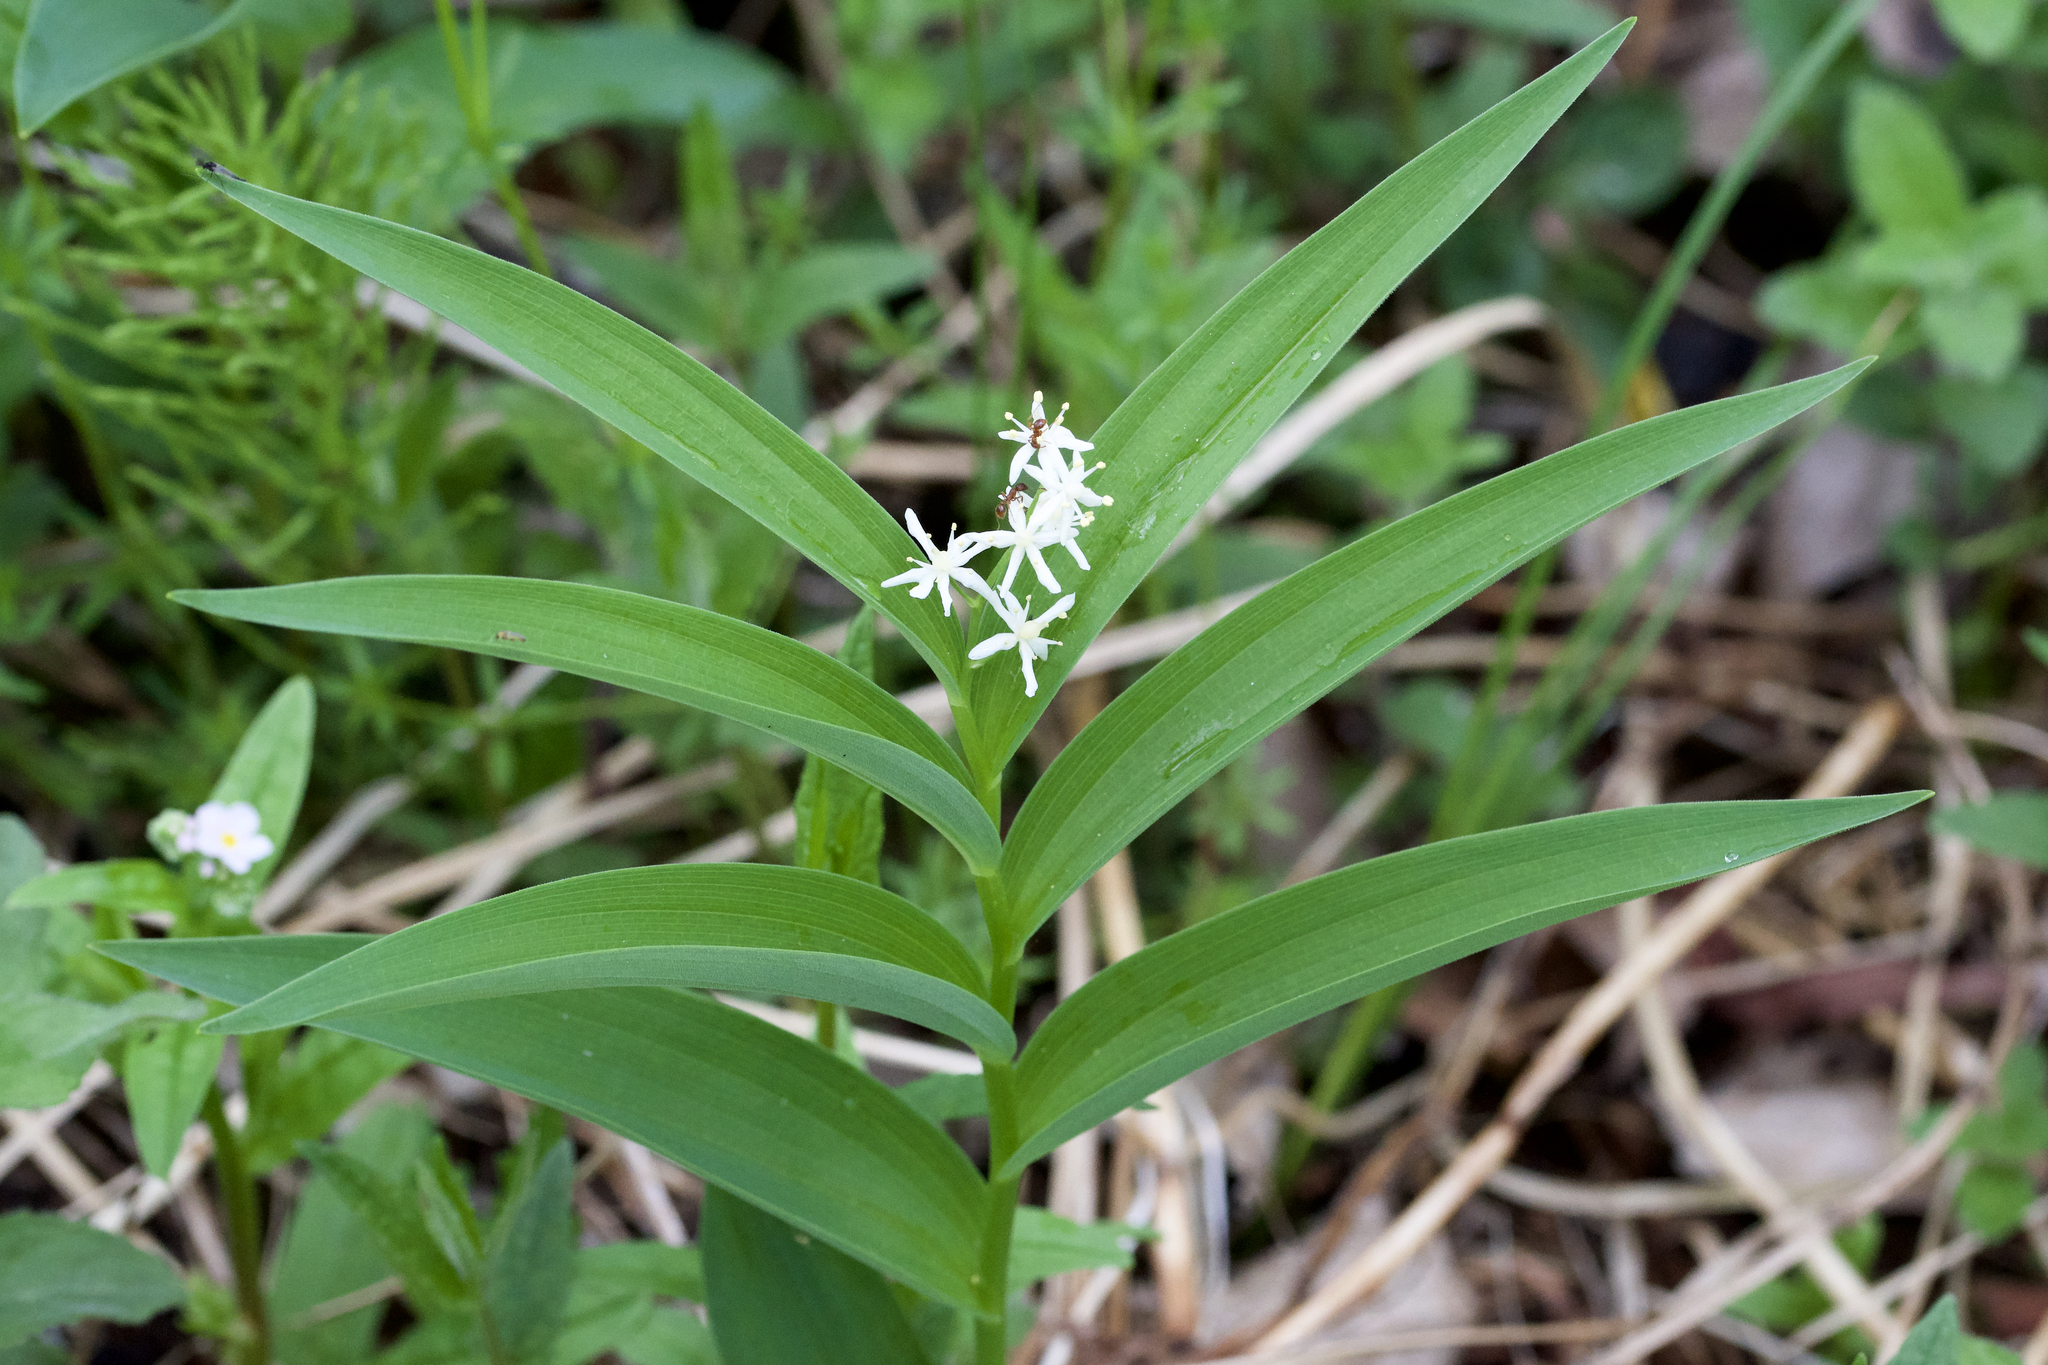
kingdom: Plantae
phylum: Tracheophyta
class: Liliopsida
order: Asparagales
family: Asparagaceae
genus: Maianthemum
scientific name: Maianthemum stellatum
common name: Little false solomon's seal
